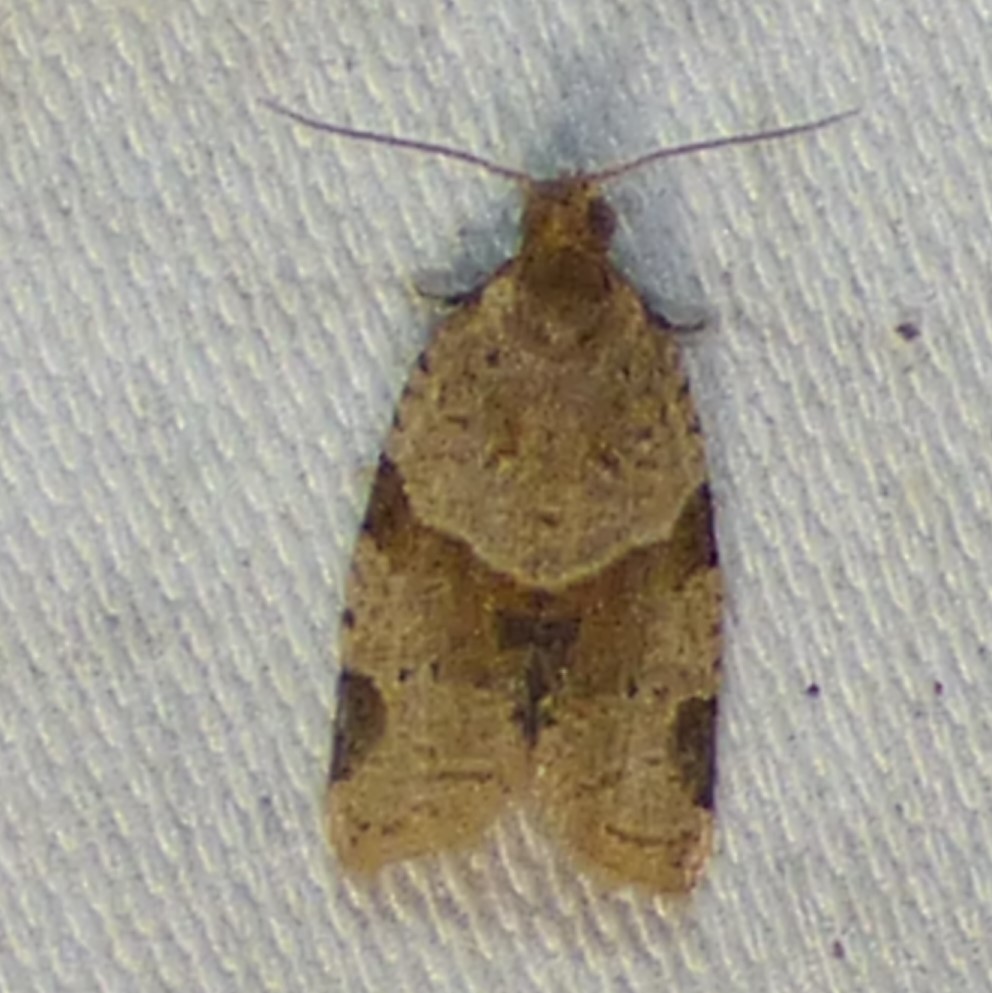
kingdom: Animalia
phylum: Arthropoda
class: Insecta
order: Lepidoptera
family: Tortricidae
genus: Clepsis
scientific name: Clepsis peritana
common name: Garden tortrix
